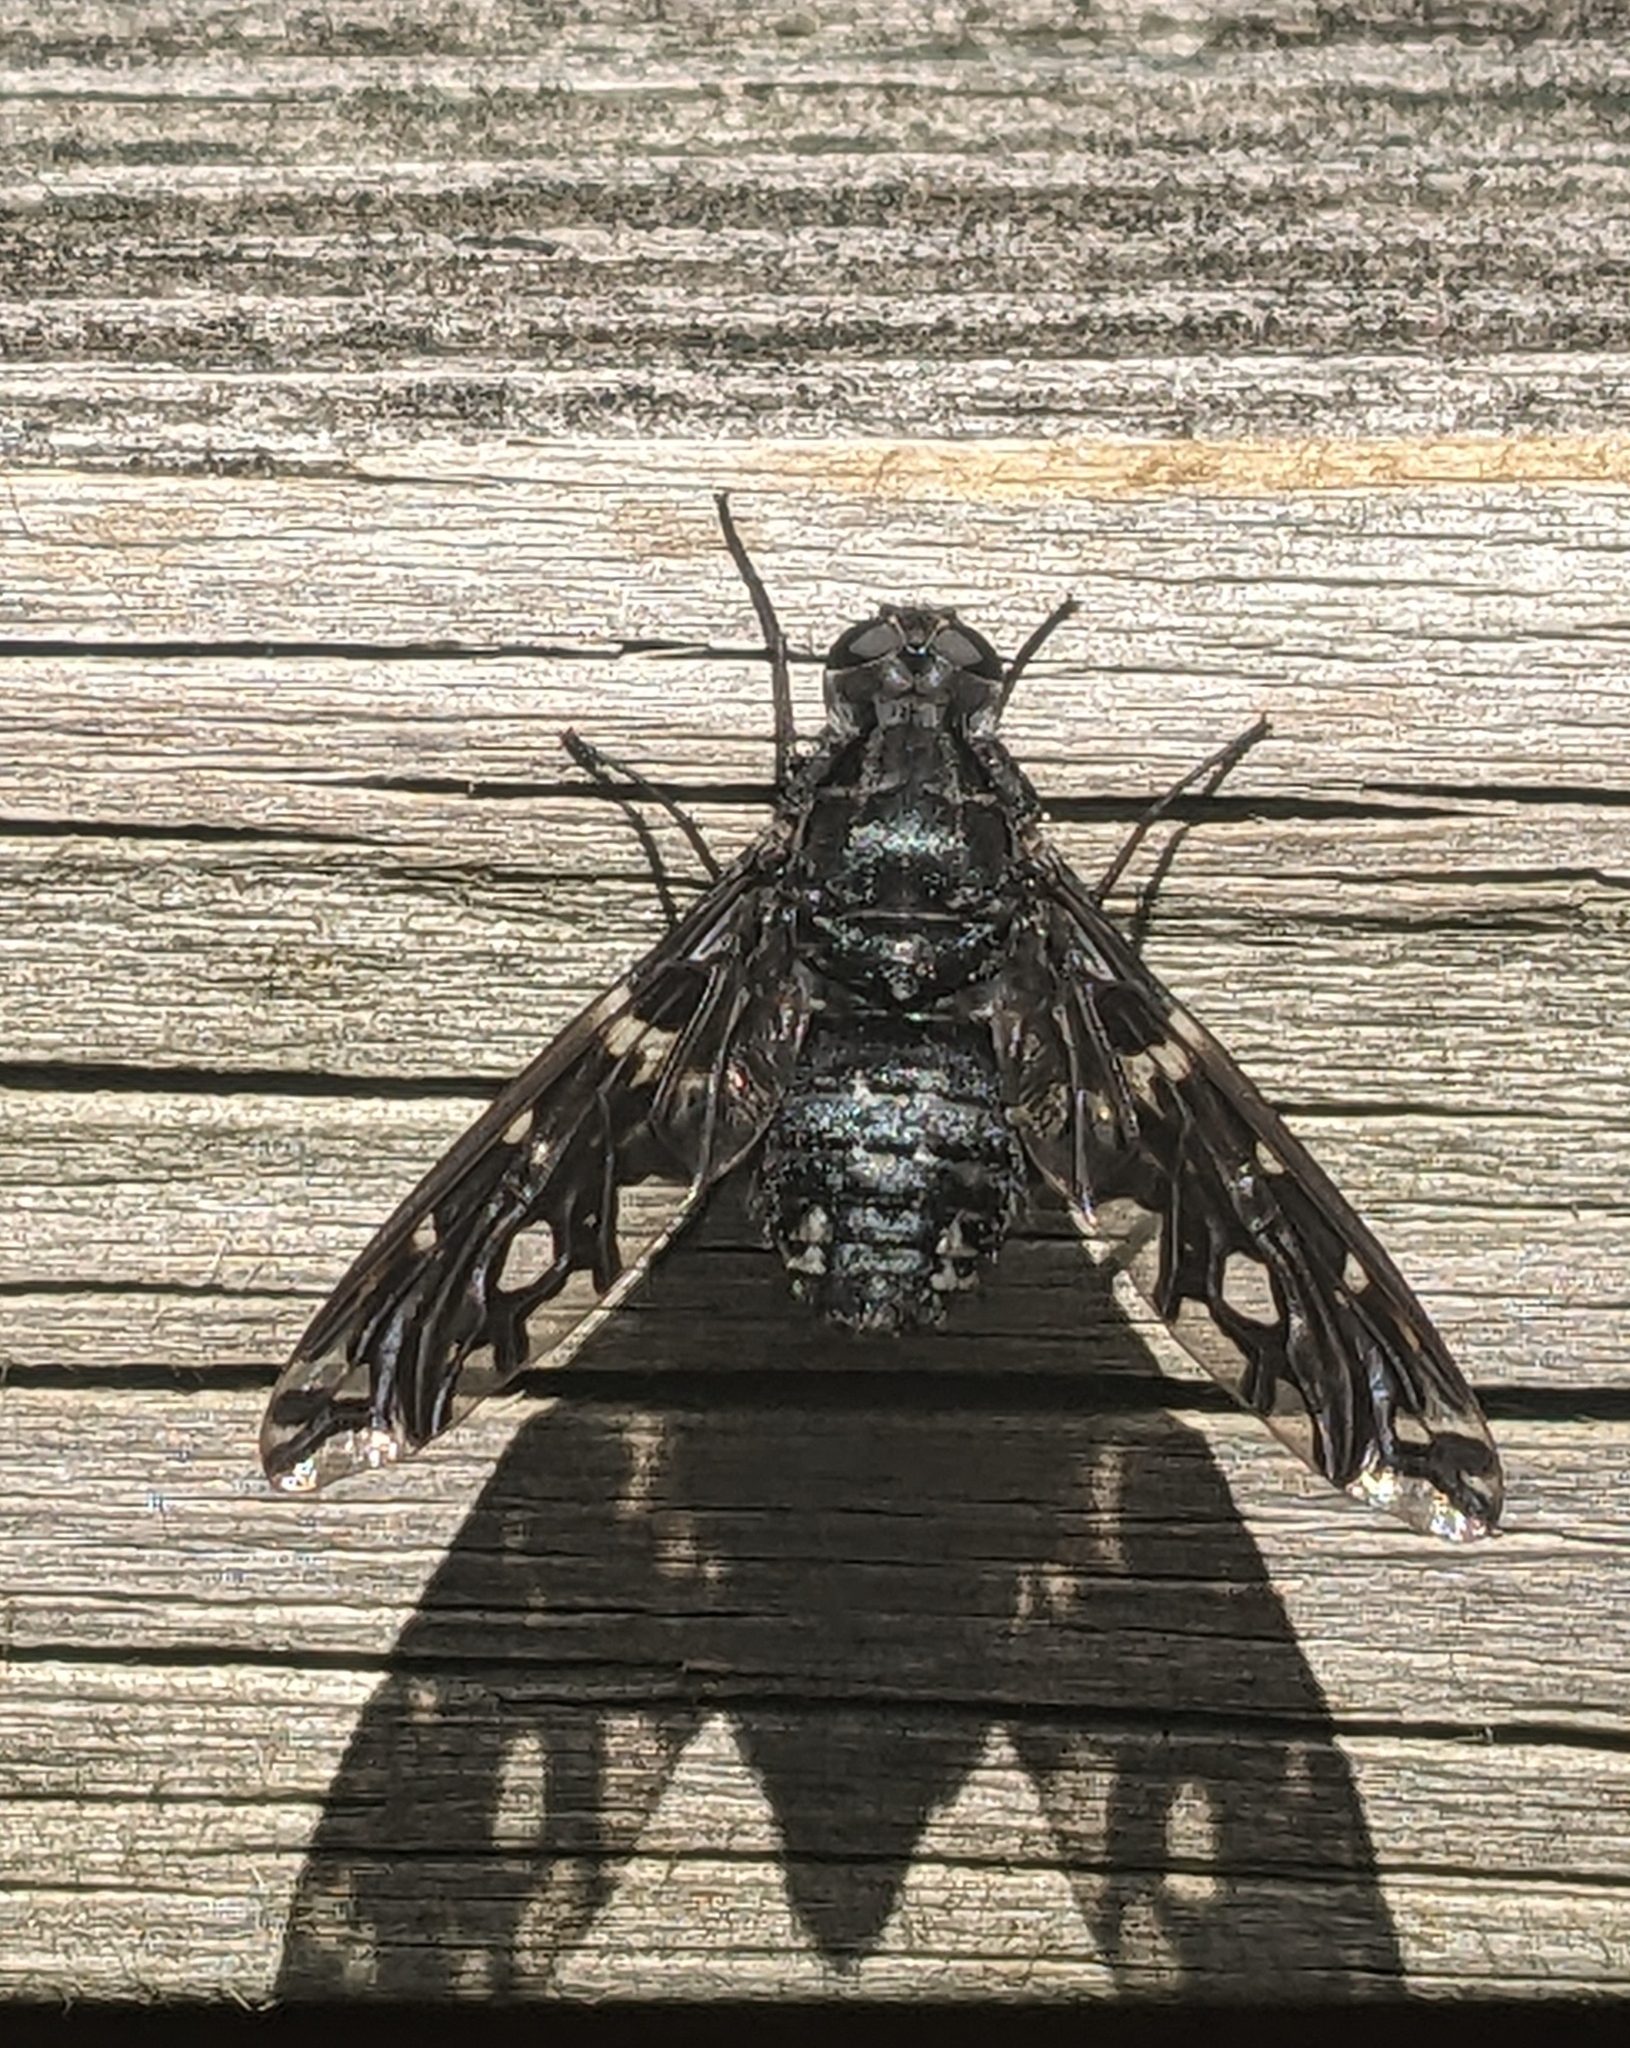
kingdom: Animalia
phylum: Arthropoda
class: Insecta
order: Diptera
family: Bombyliidae
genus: Xenox
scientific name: Xenox tigrinus
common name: Tiger bee fly
